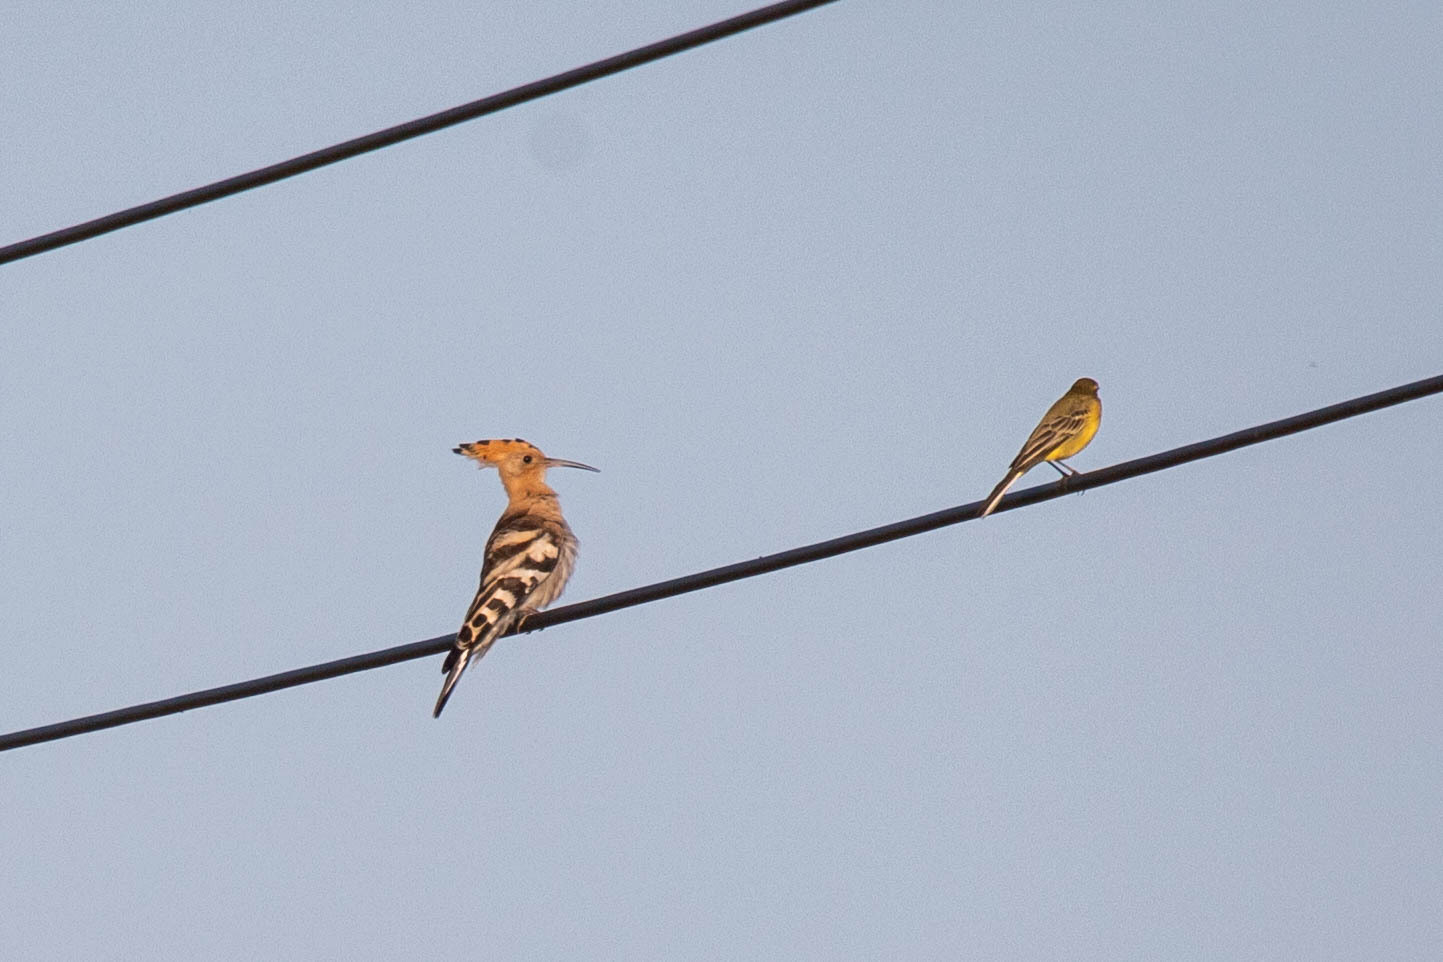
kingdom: Animalia
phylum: Chordata
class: Aves
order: Bucerotiformes
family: Upupidae
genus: Upupa
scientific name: Upupa epops
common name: Eurasian hoopoe
